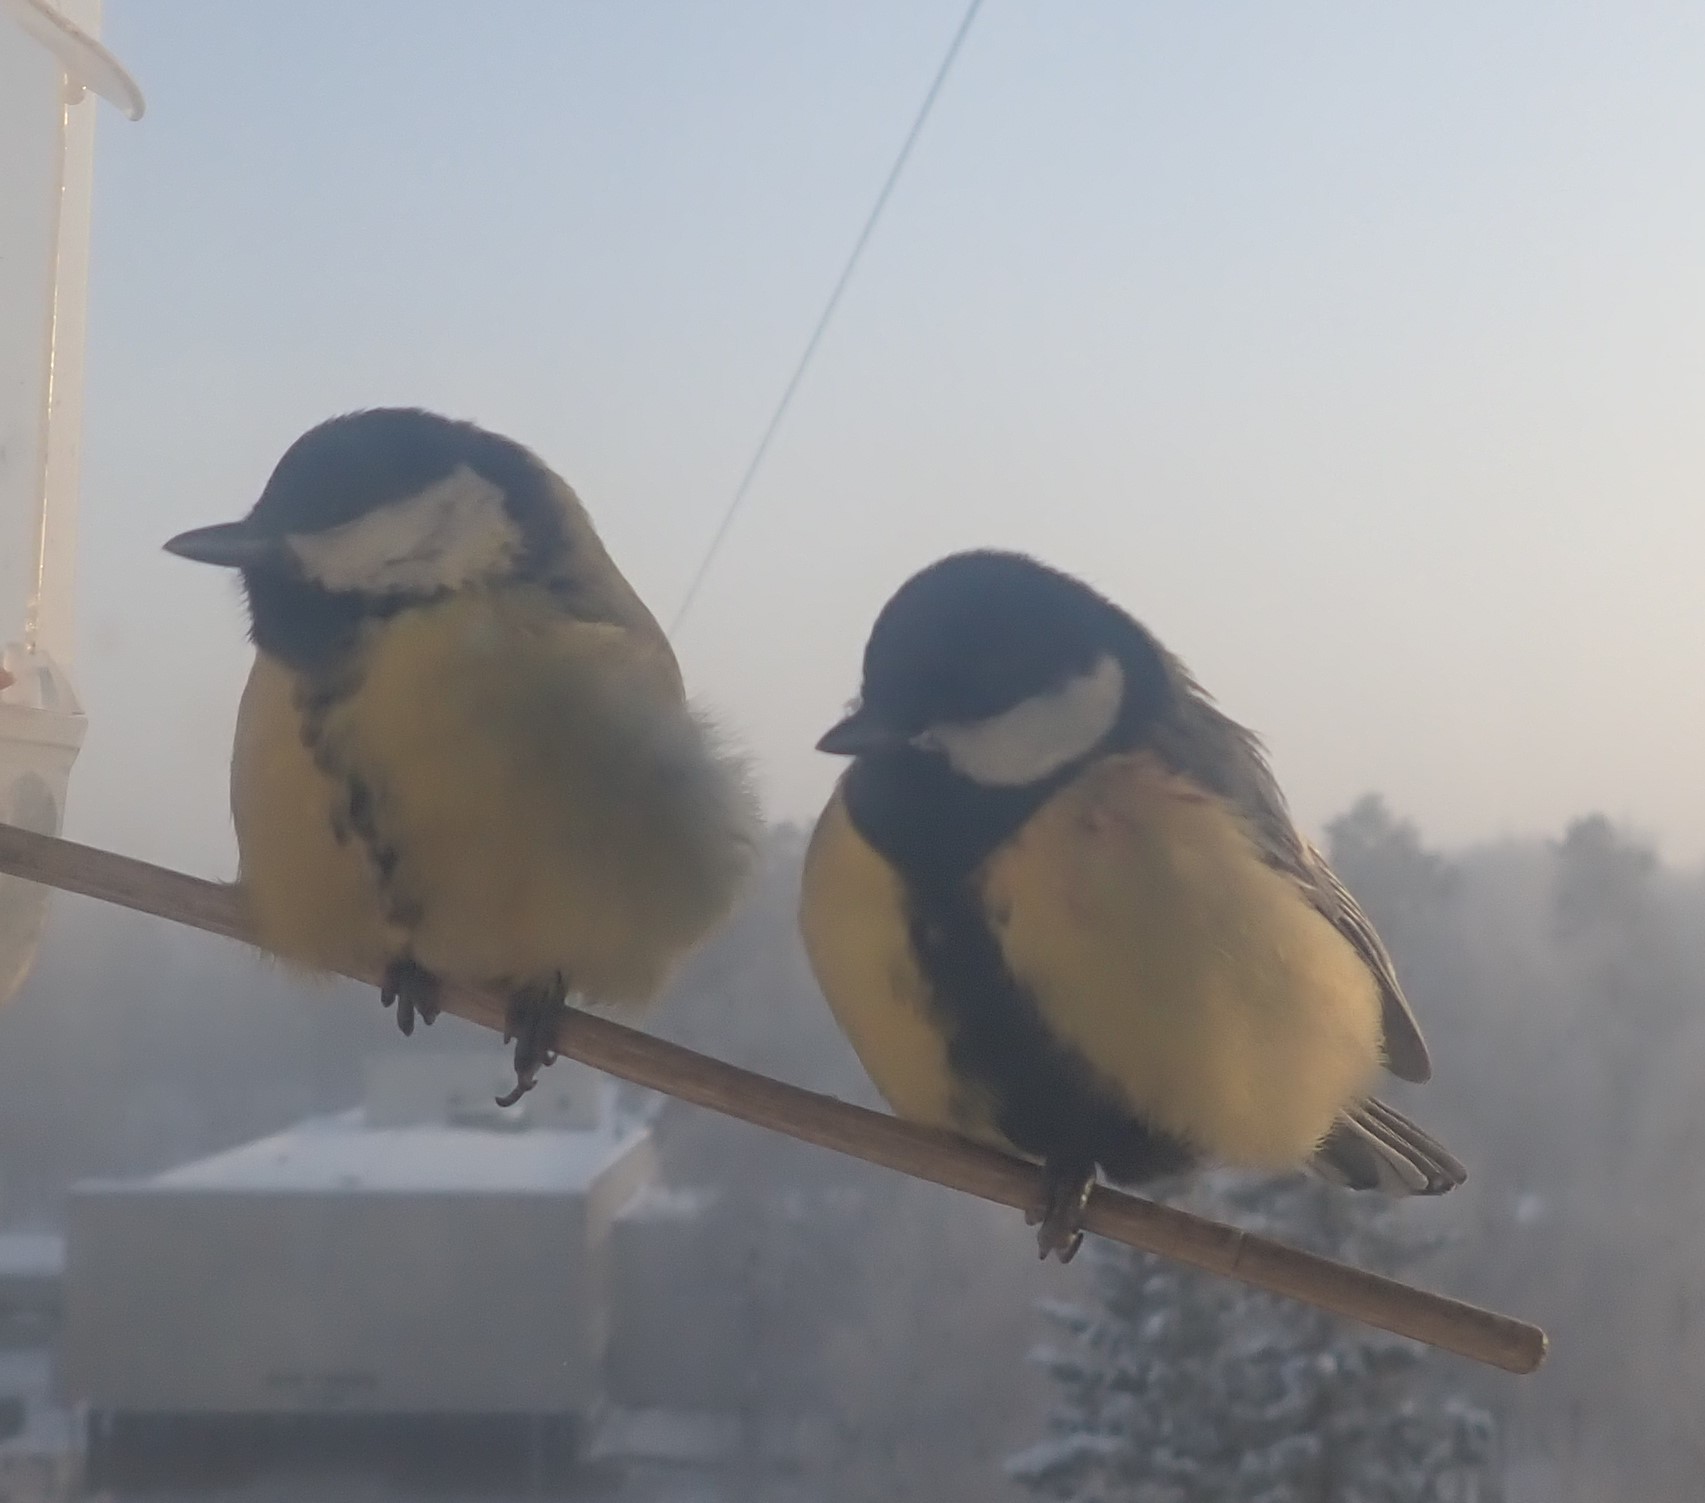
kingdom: Animalia
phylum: Chordata
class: Aves
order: Passeriformes
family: Paridae
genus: Parus
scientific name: Parus major
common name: Great tit
